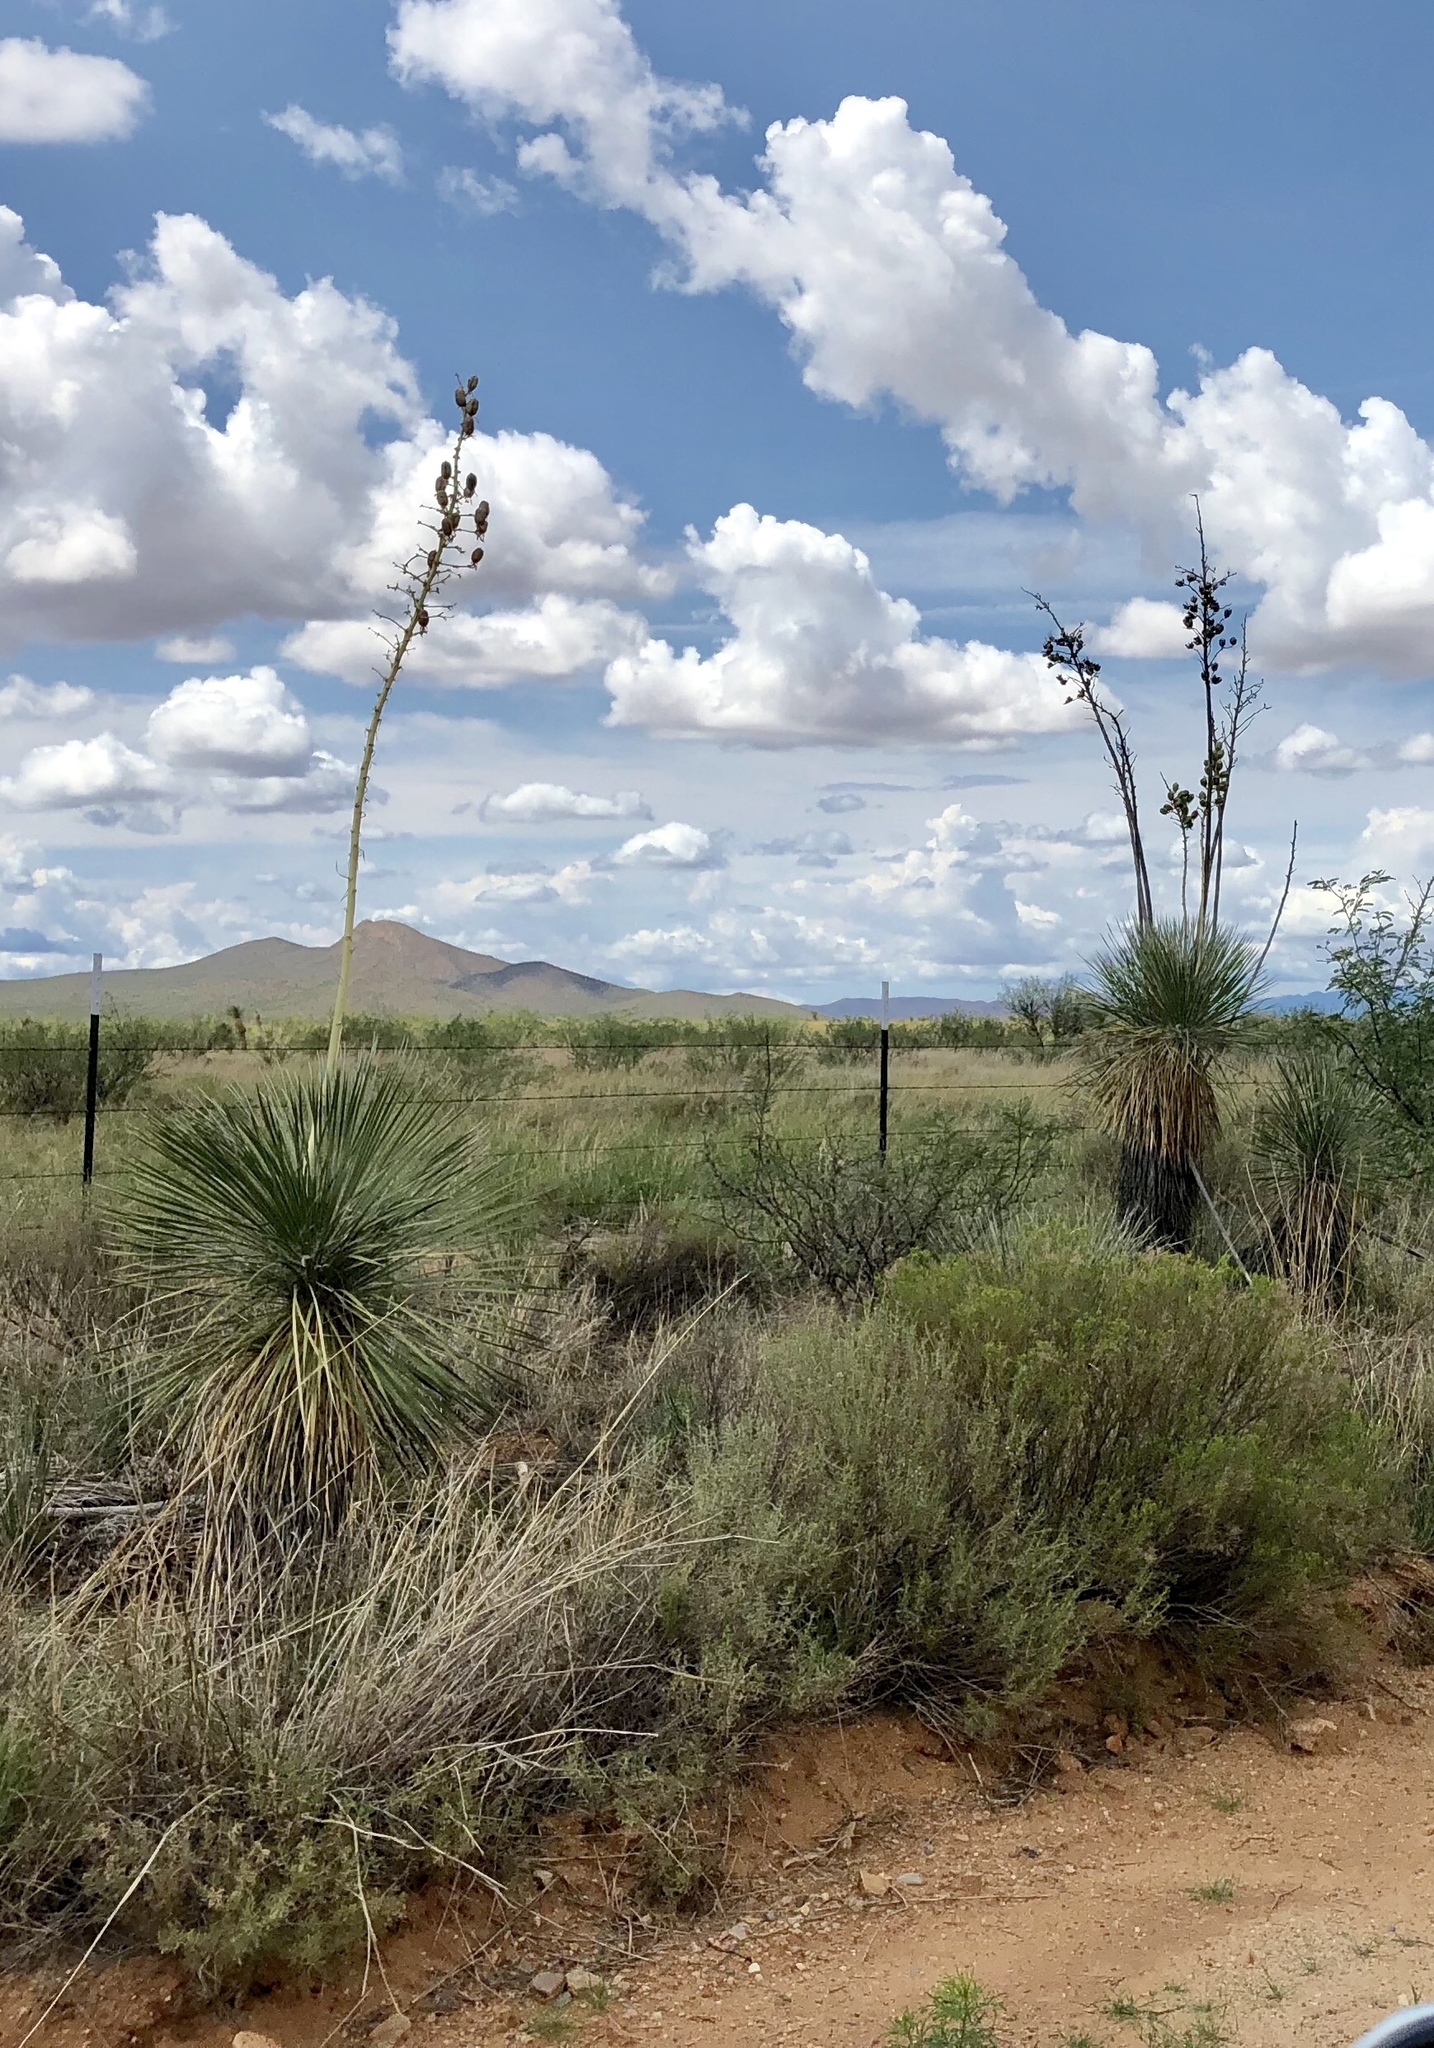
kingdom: Plantae
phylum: Tracheophyta
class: Liliopsida
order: Asparagales
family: Asparagaceae
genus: Yucca
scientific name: Yucca elata
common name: Palmella
